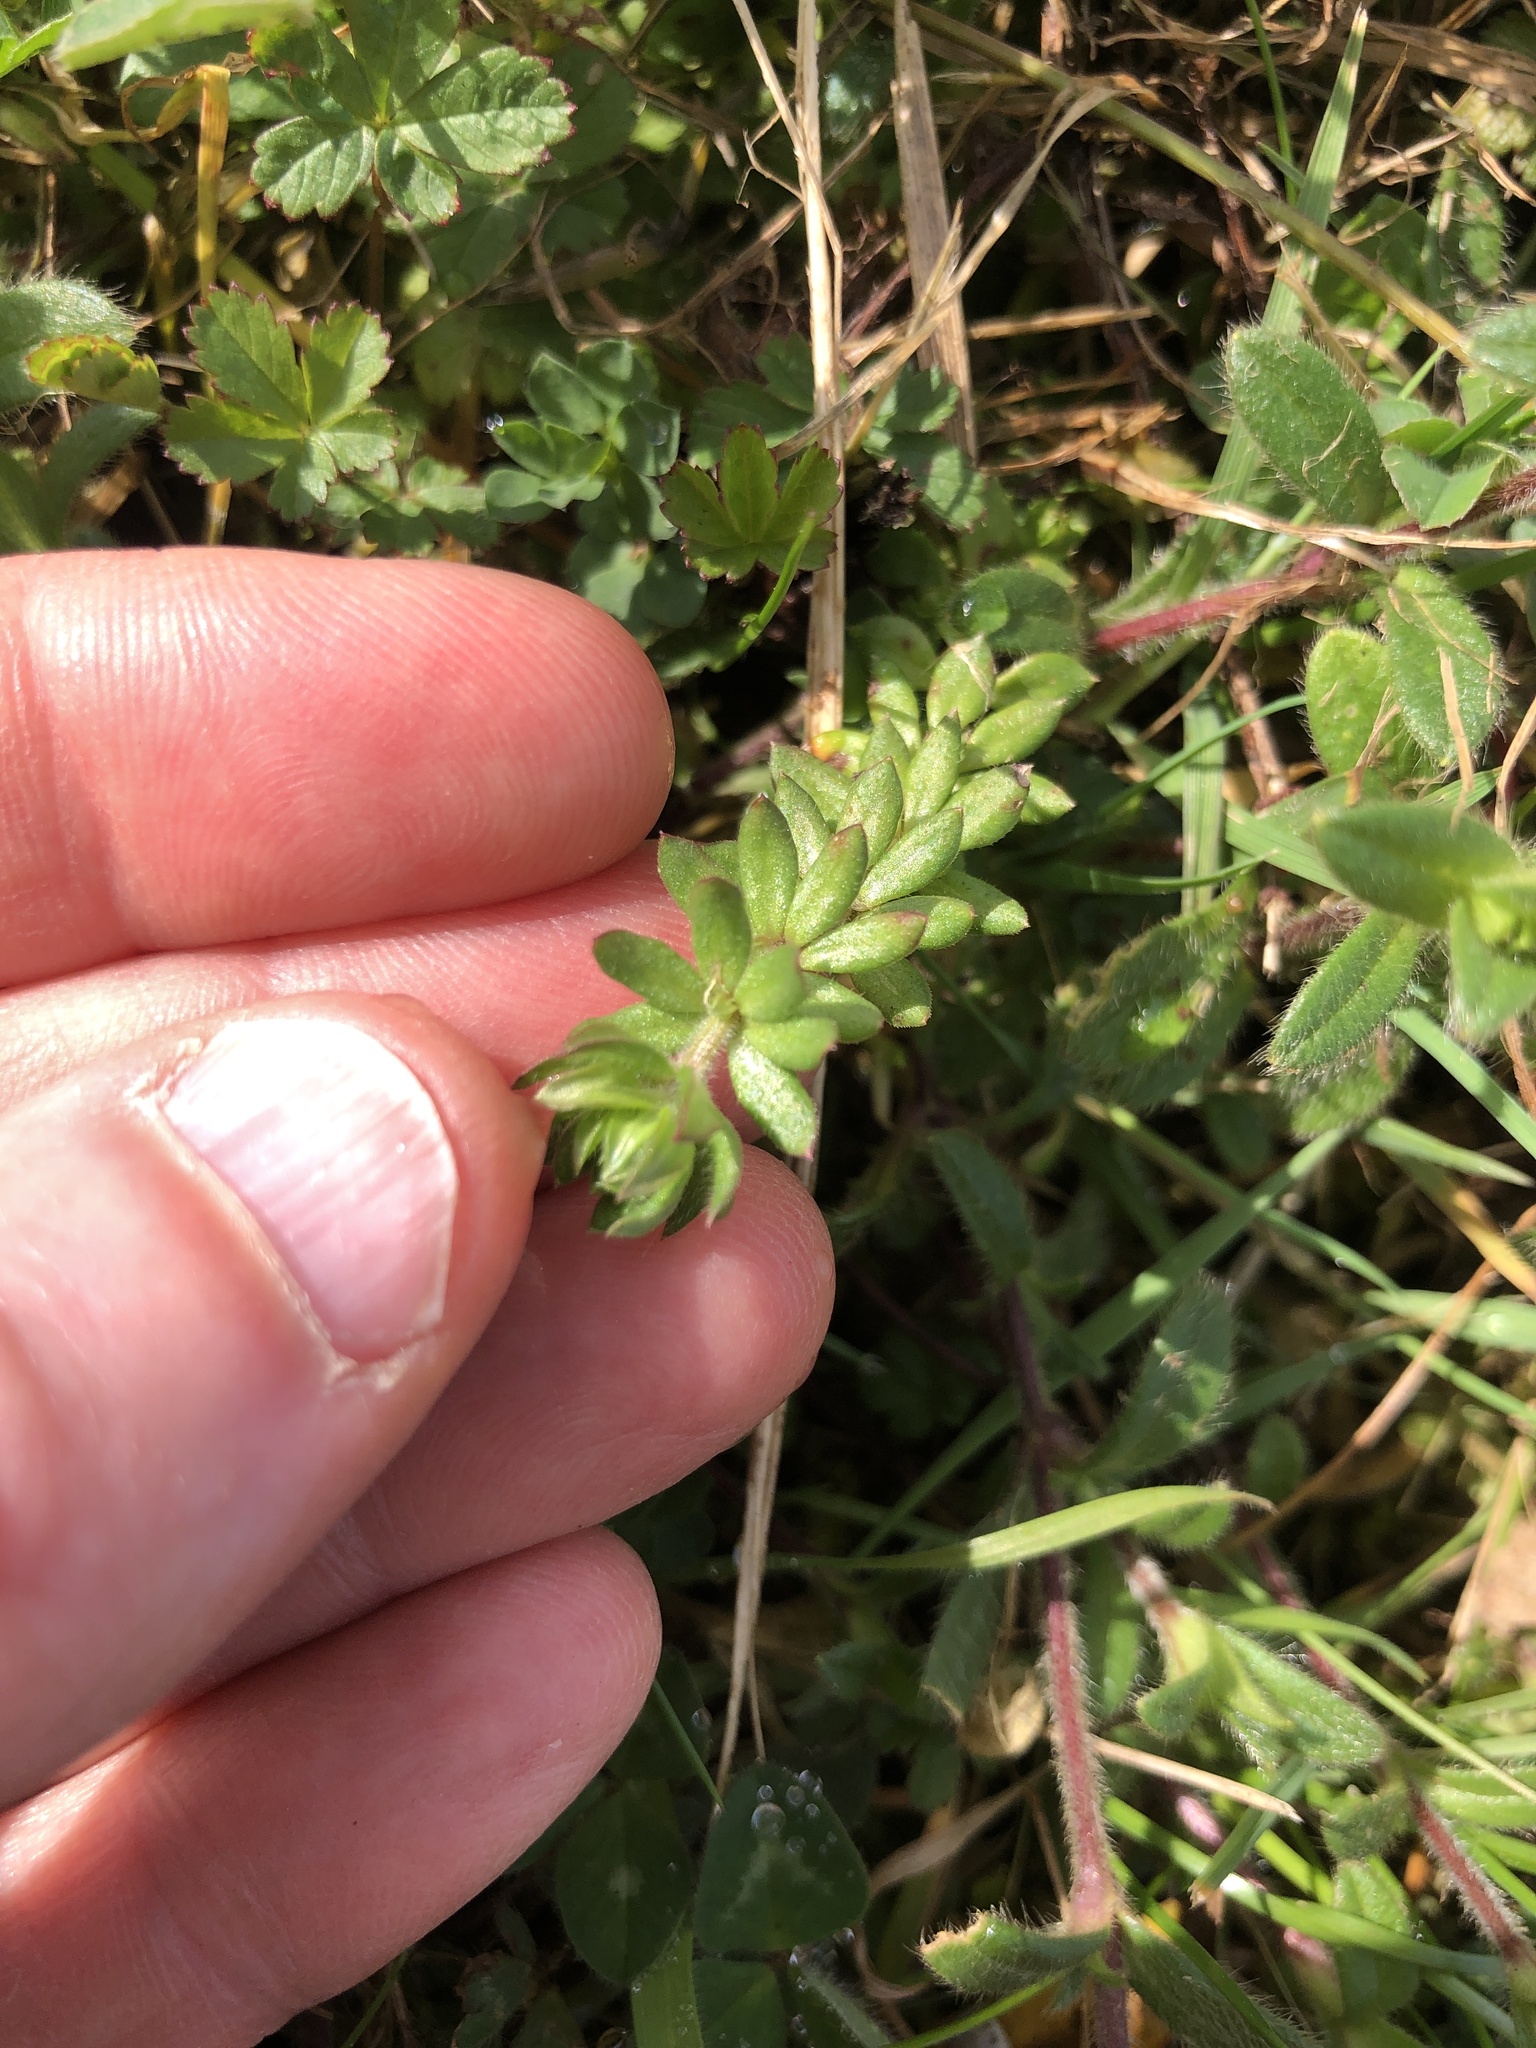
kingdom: Plantae
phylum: Tracheophyta
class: Magnoliopsida
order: Gentianales
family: Rubiaceae
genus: Sherardia
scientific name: Sherardia arvensis
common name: Field madder
